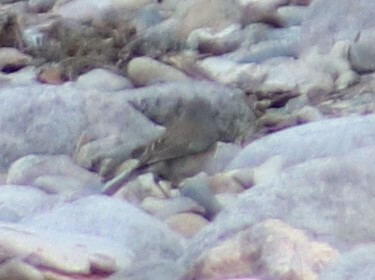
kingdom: Animalia
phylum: Chordata
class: Aves
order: Passeriformes
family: Passerellidae
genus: Junco
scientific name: Junco hyemalis
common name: Dark-eyed junco
